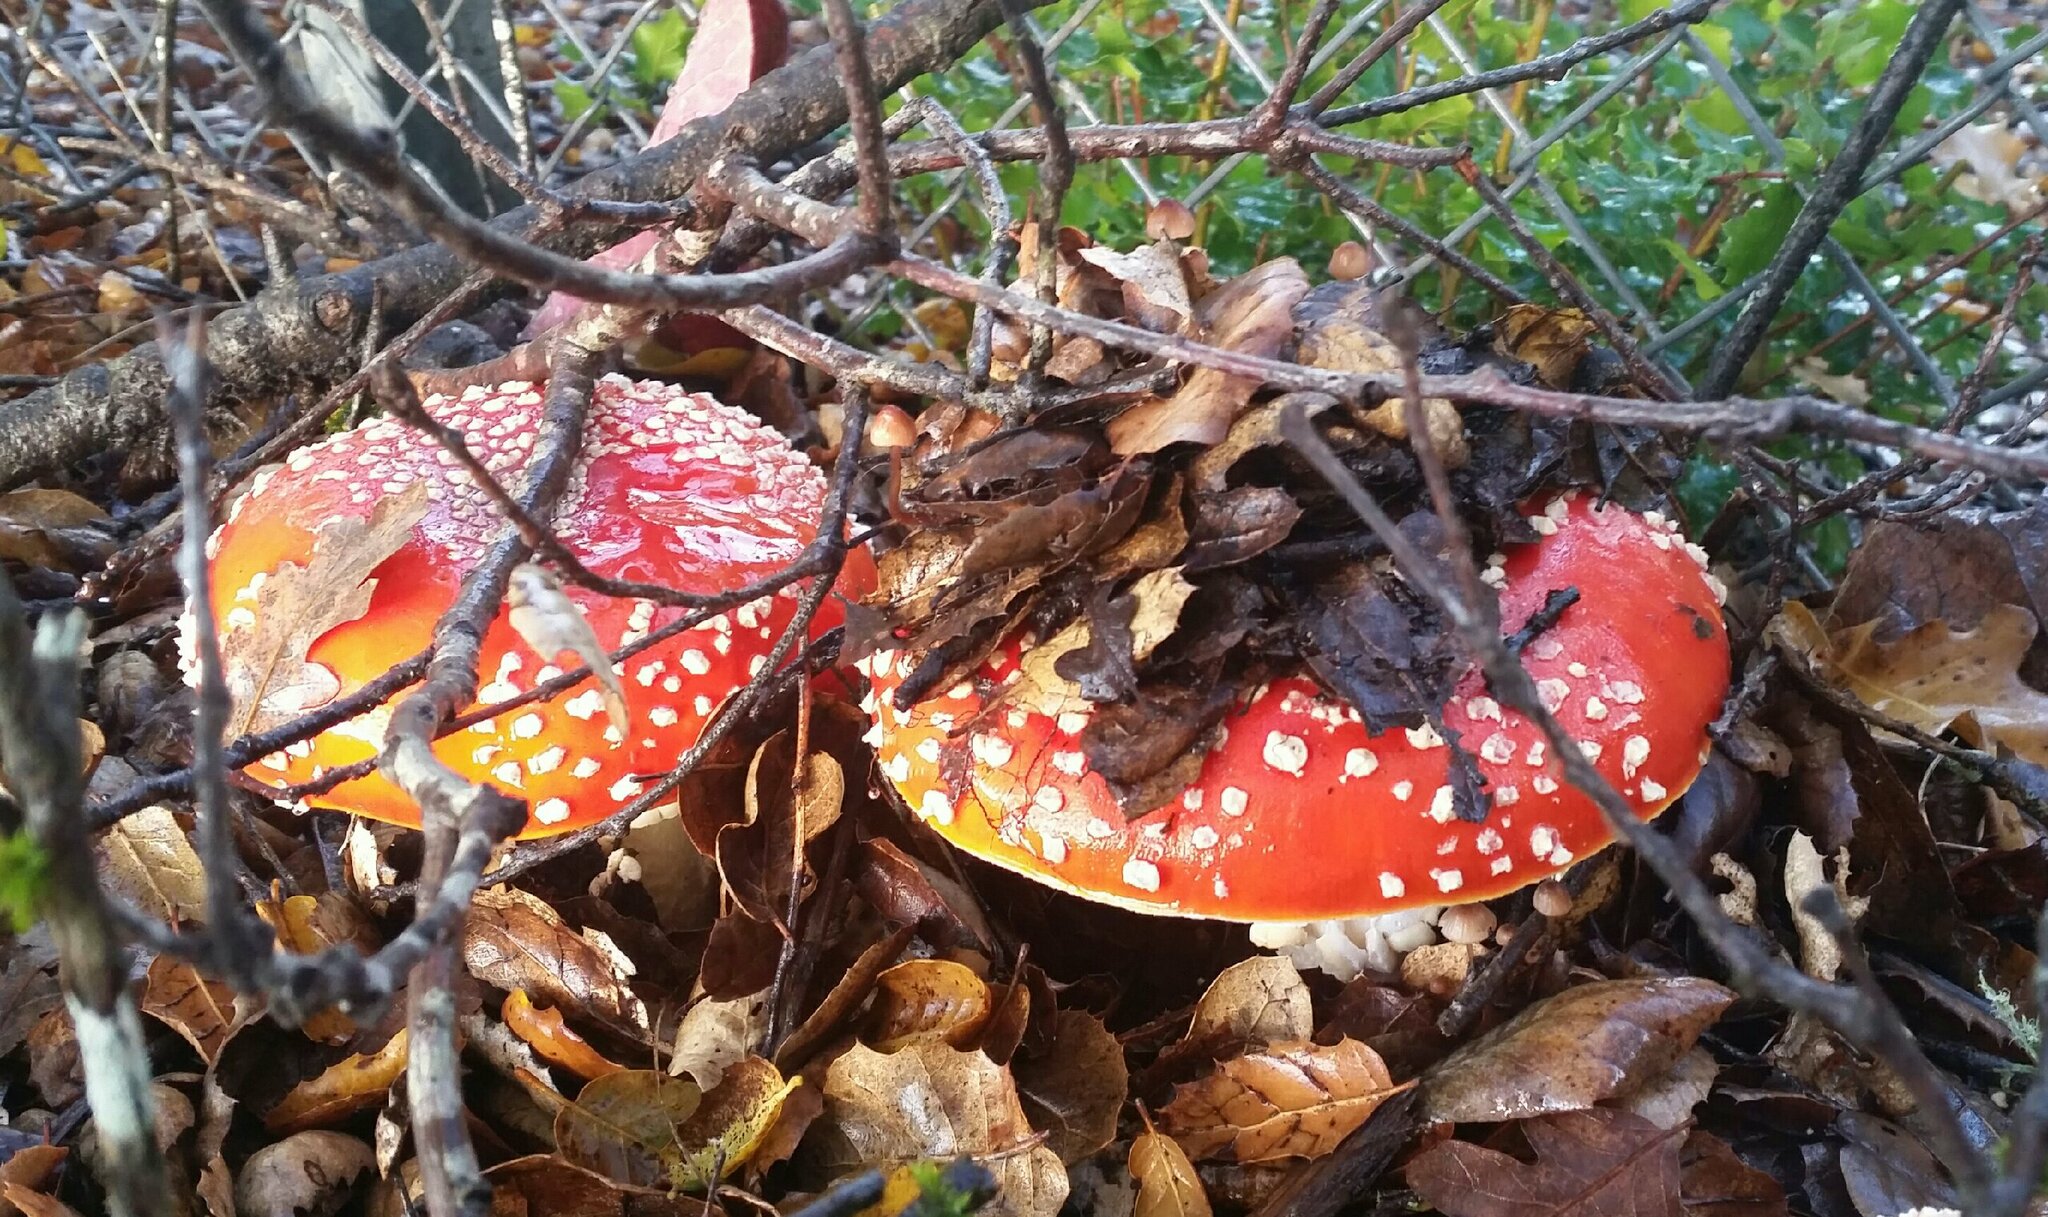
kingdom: Fungi
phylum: Basidiomycota
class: Agaricomycetes
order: Agaricales
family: Amanitaceae
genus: Amanita
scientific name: Amanita muscaria
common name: Fly agaric
